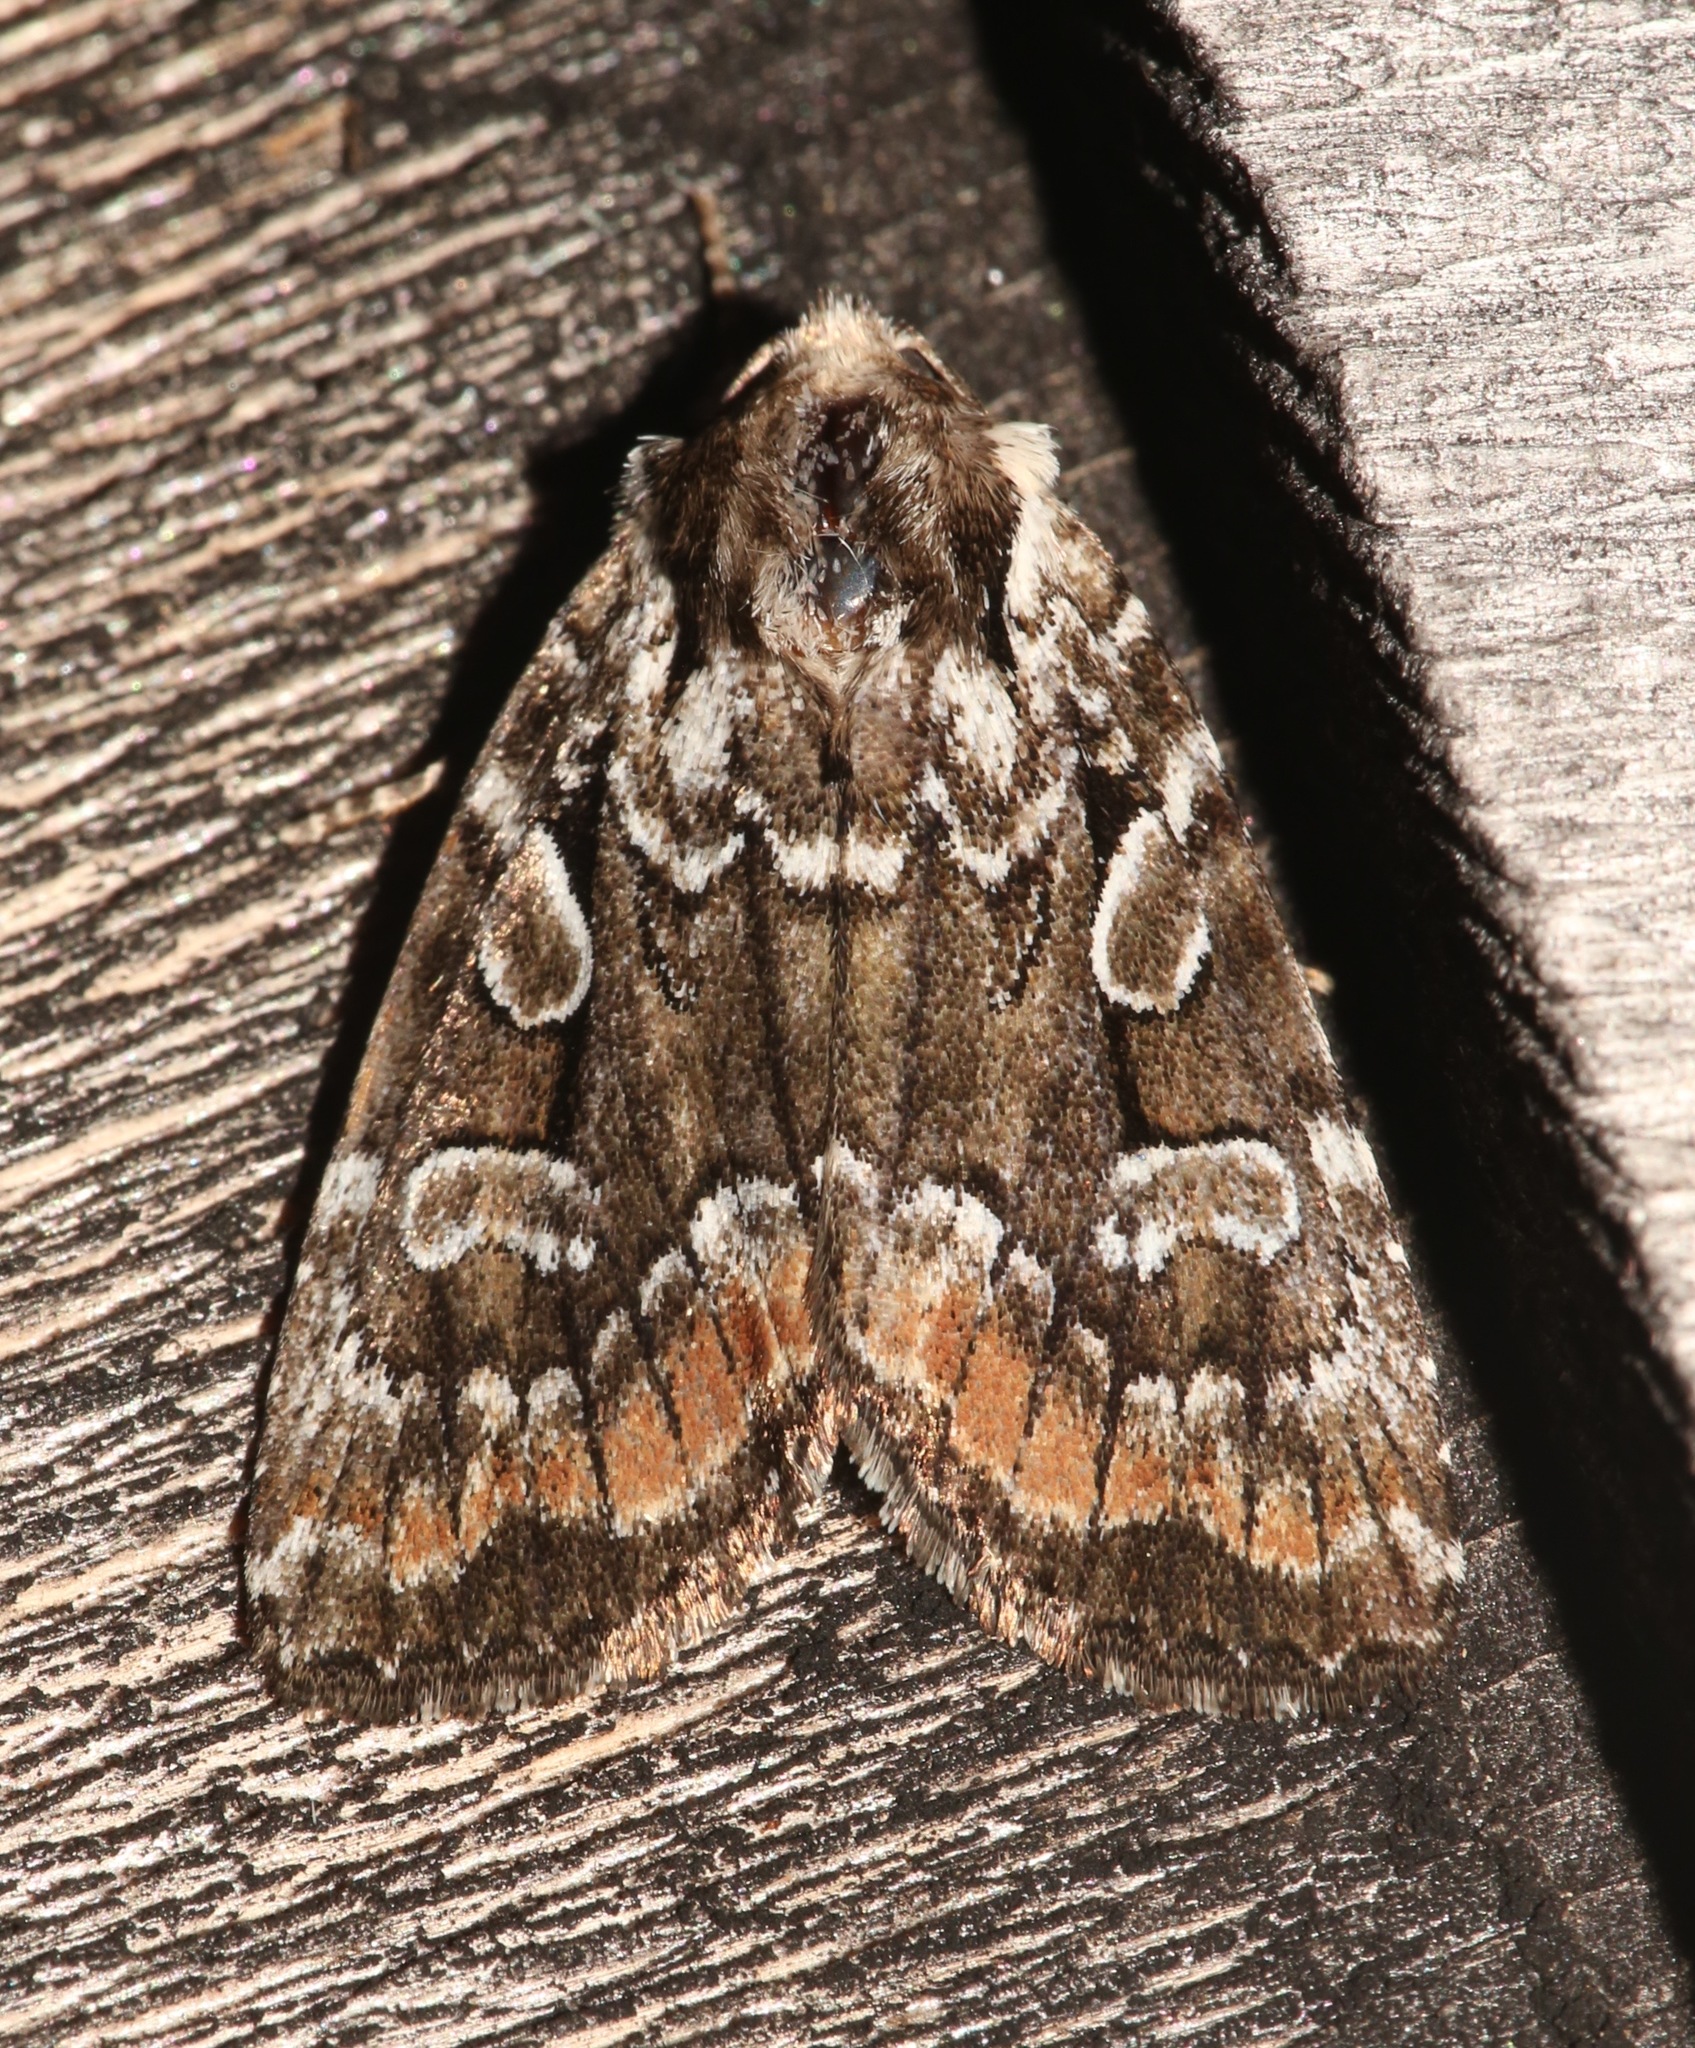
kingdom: Animalia
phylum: Arthropoda
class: Insecta
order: Lepidoptera
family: Noctuidae
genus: Aplectoides
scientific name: Aplectoides condita
